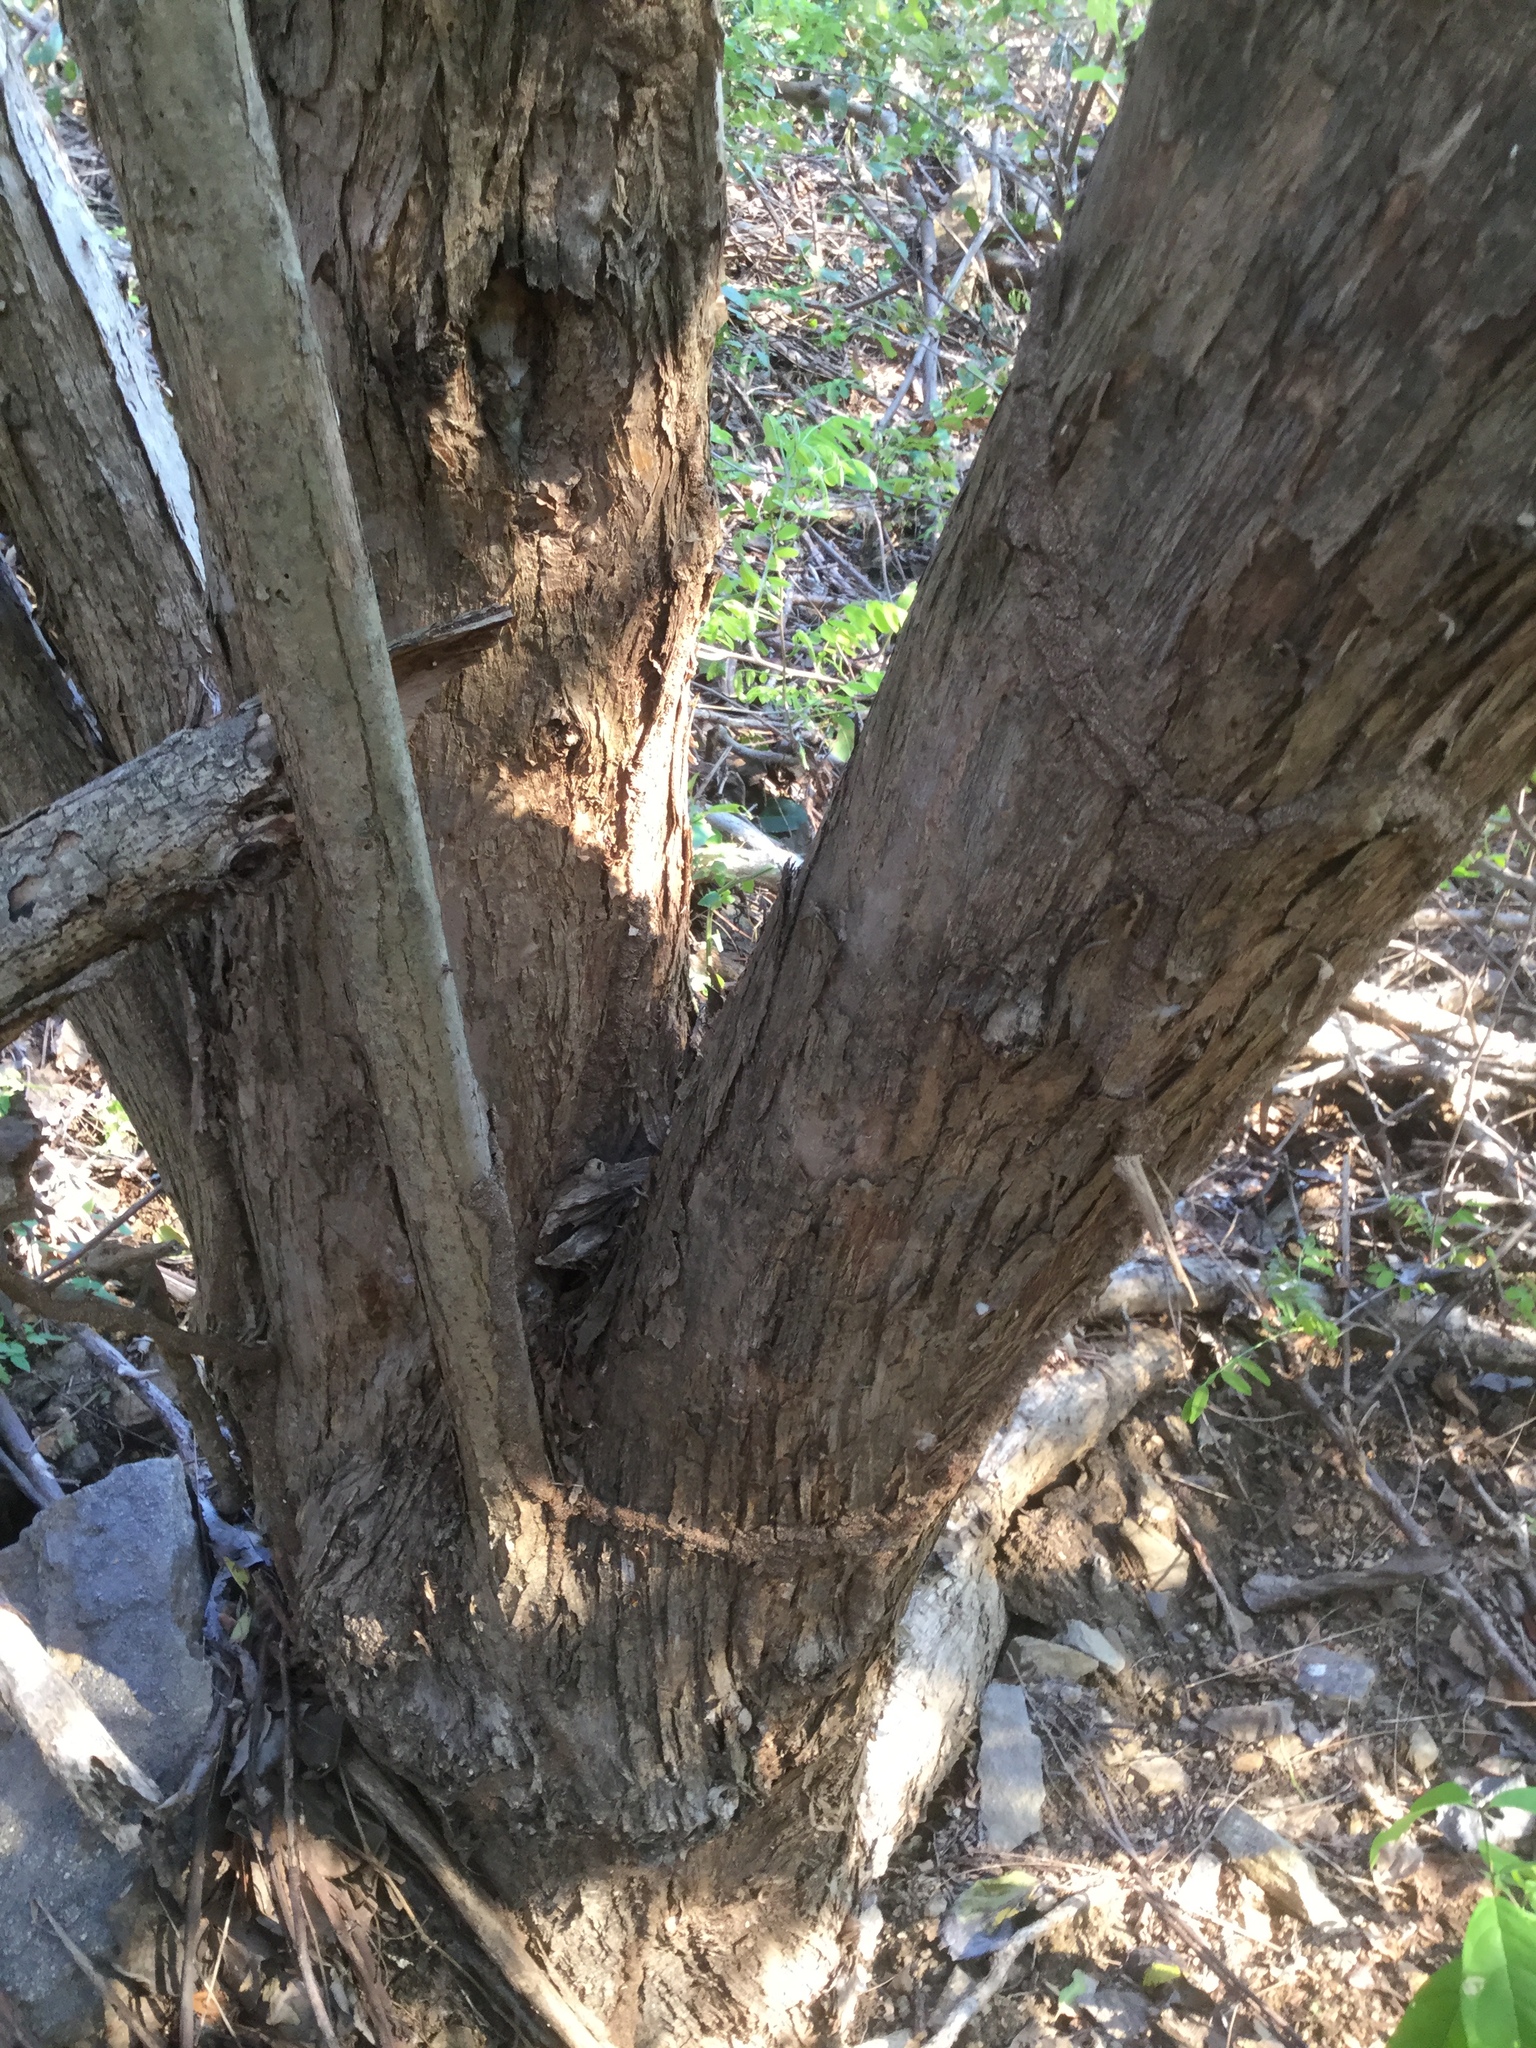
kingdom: Plantae
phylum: Tracheophyta
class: Magnoliopsida
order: Boraginales
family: Cordiaceae
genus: Cordia
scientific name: Cordia dentata
